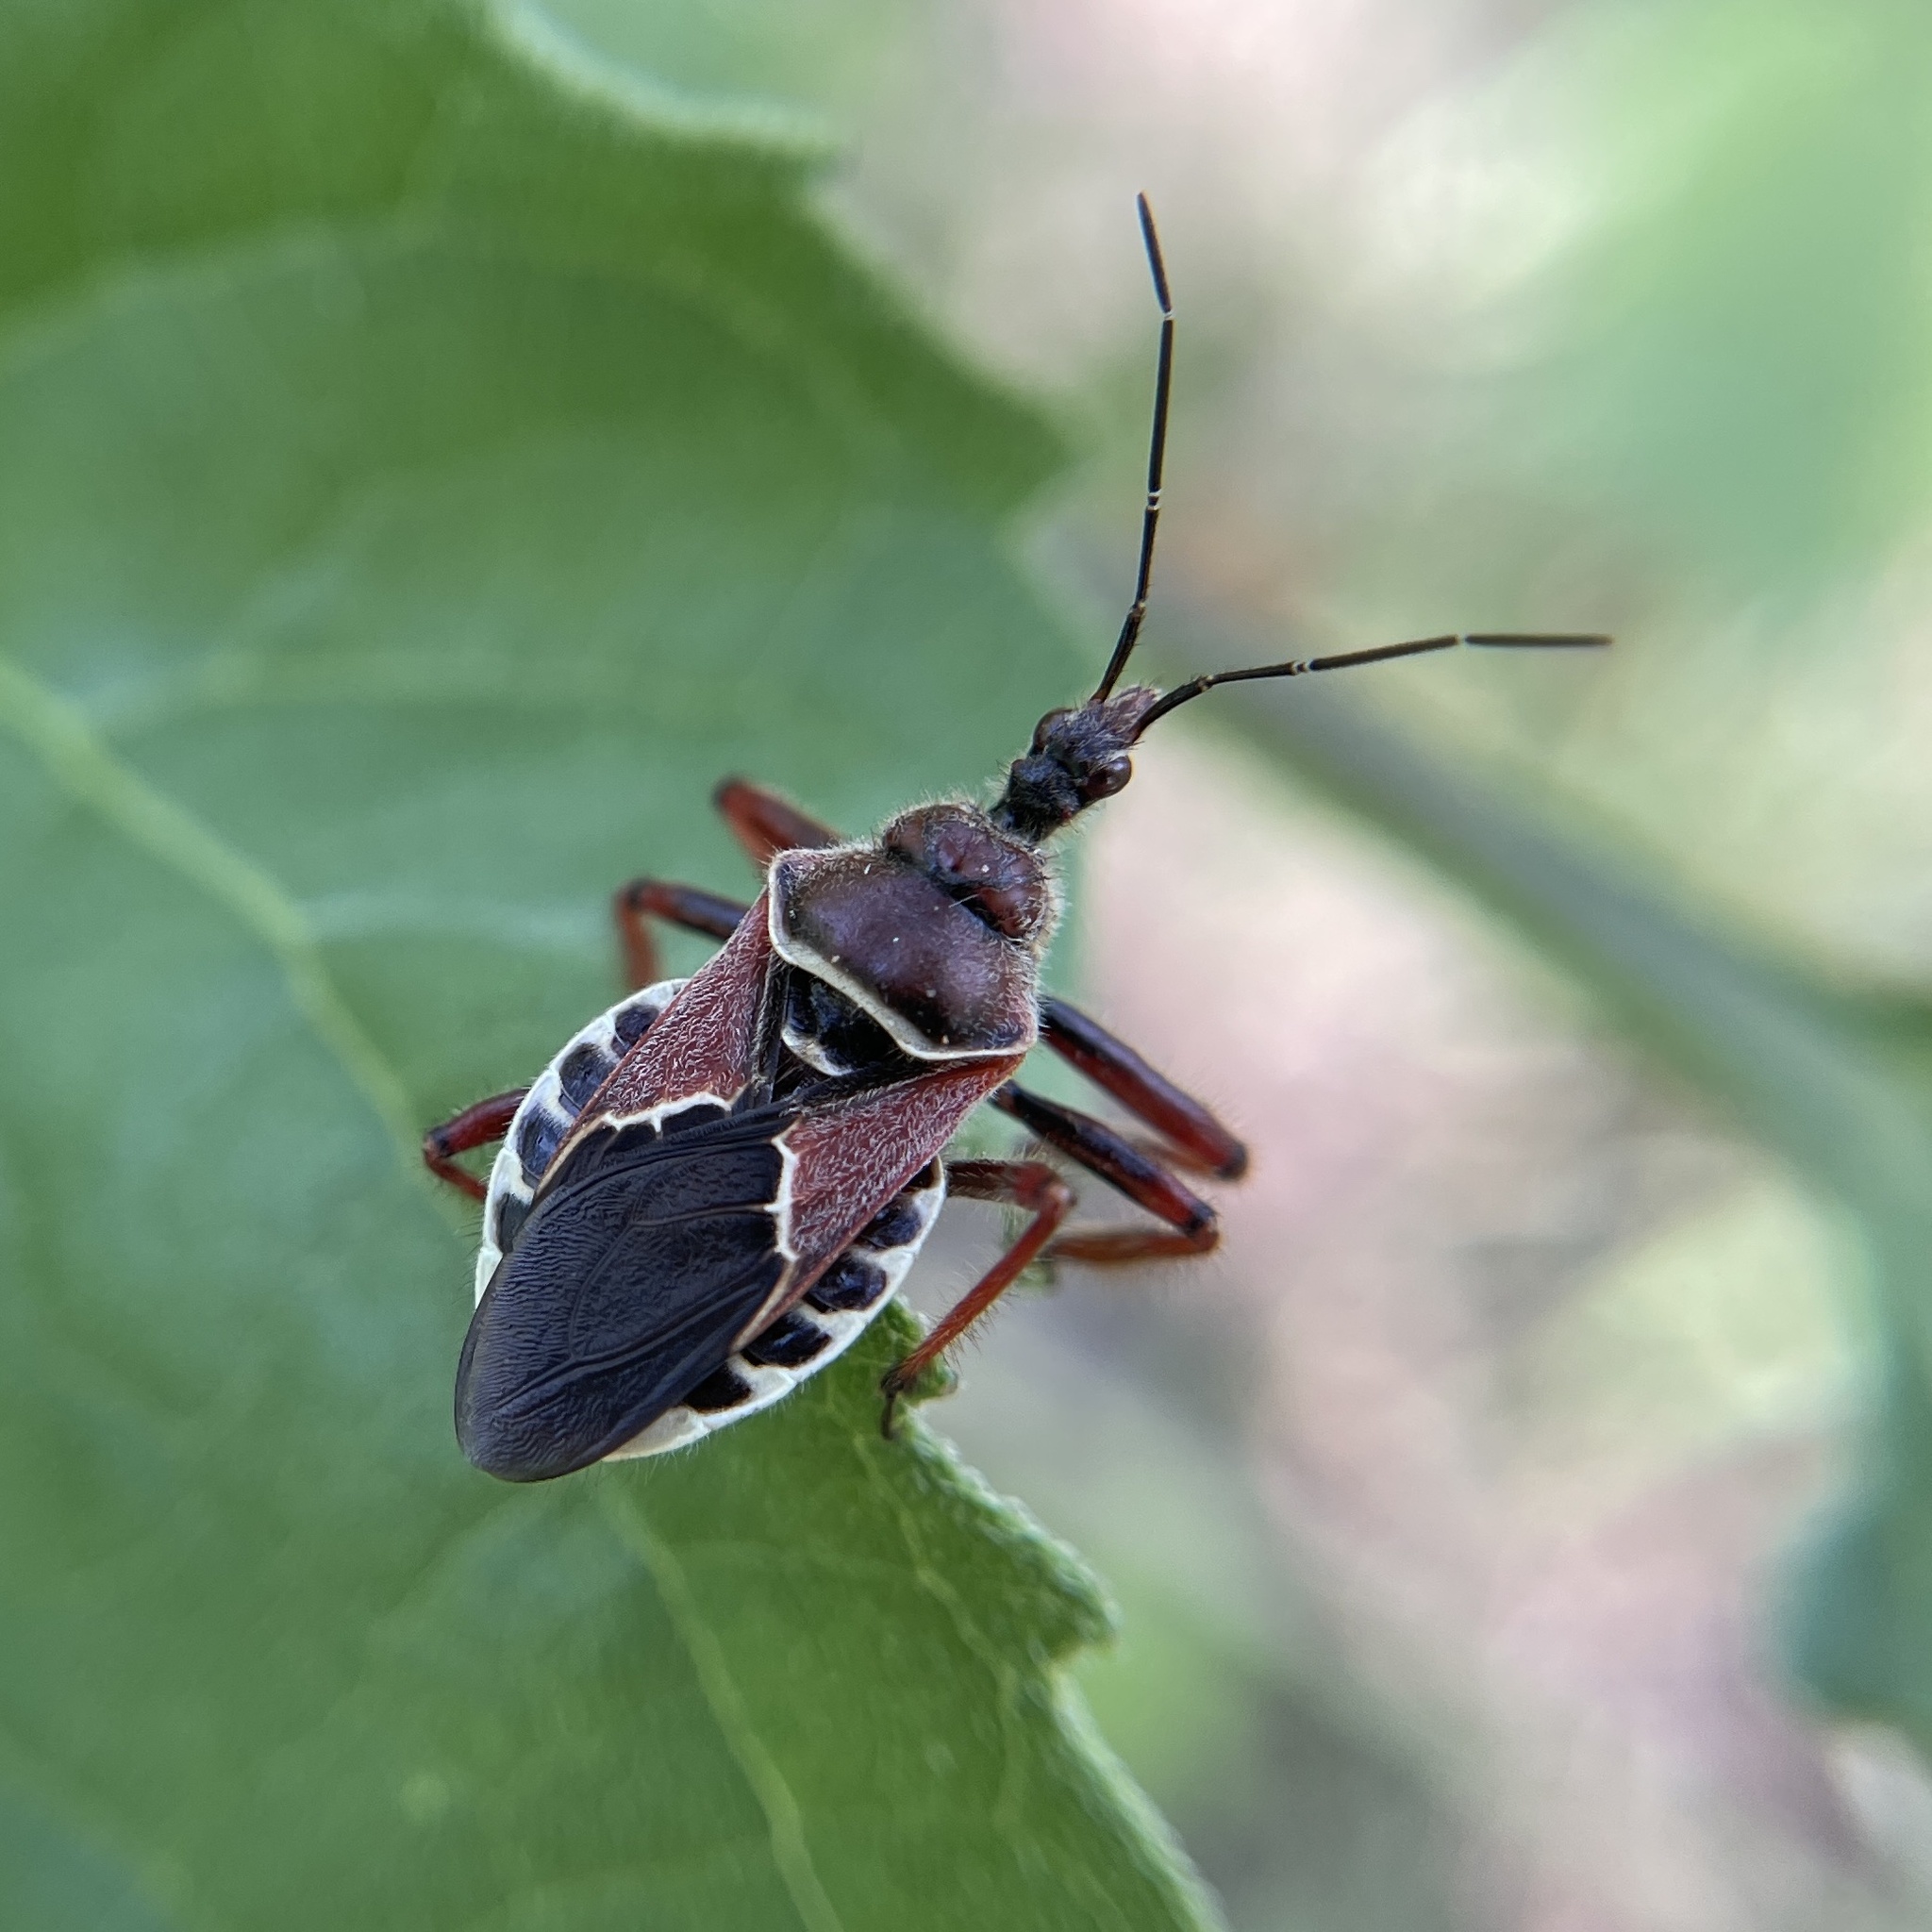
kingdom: Animalia
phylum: Arthropoda
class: Insecta
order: Hemiptera
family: Reduviidae
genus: Apiomerus
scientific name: Apiomerus spissipes
